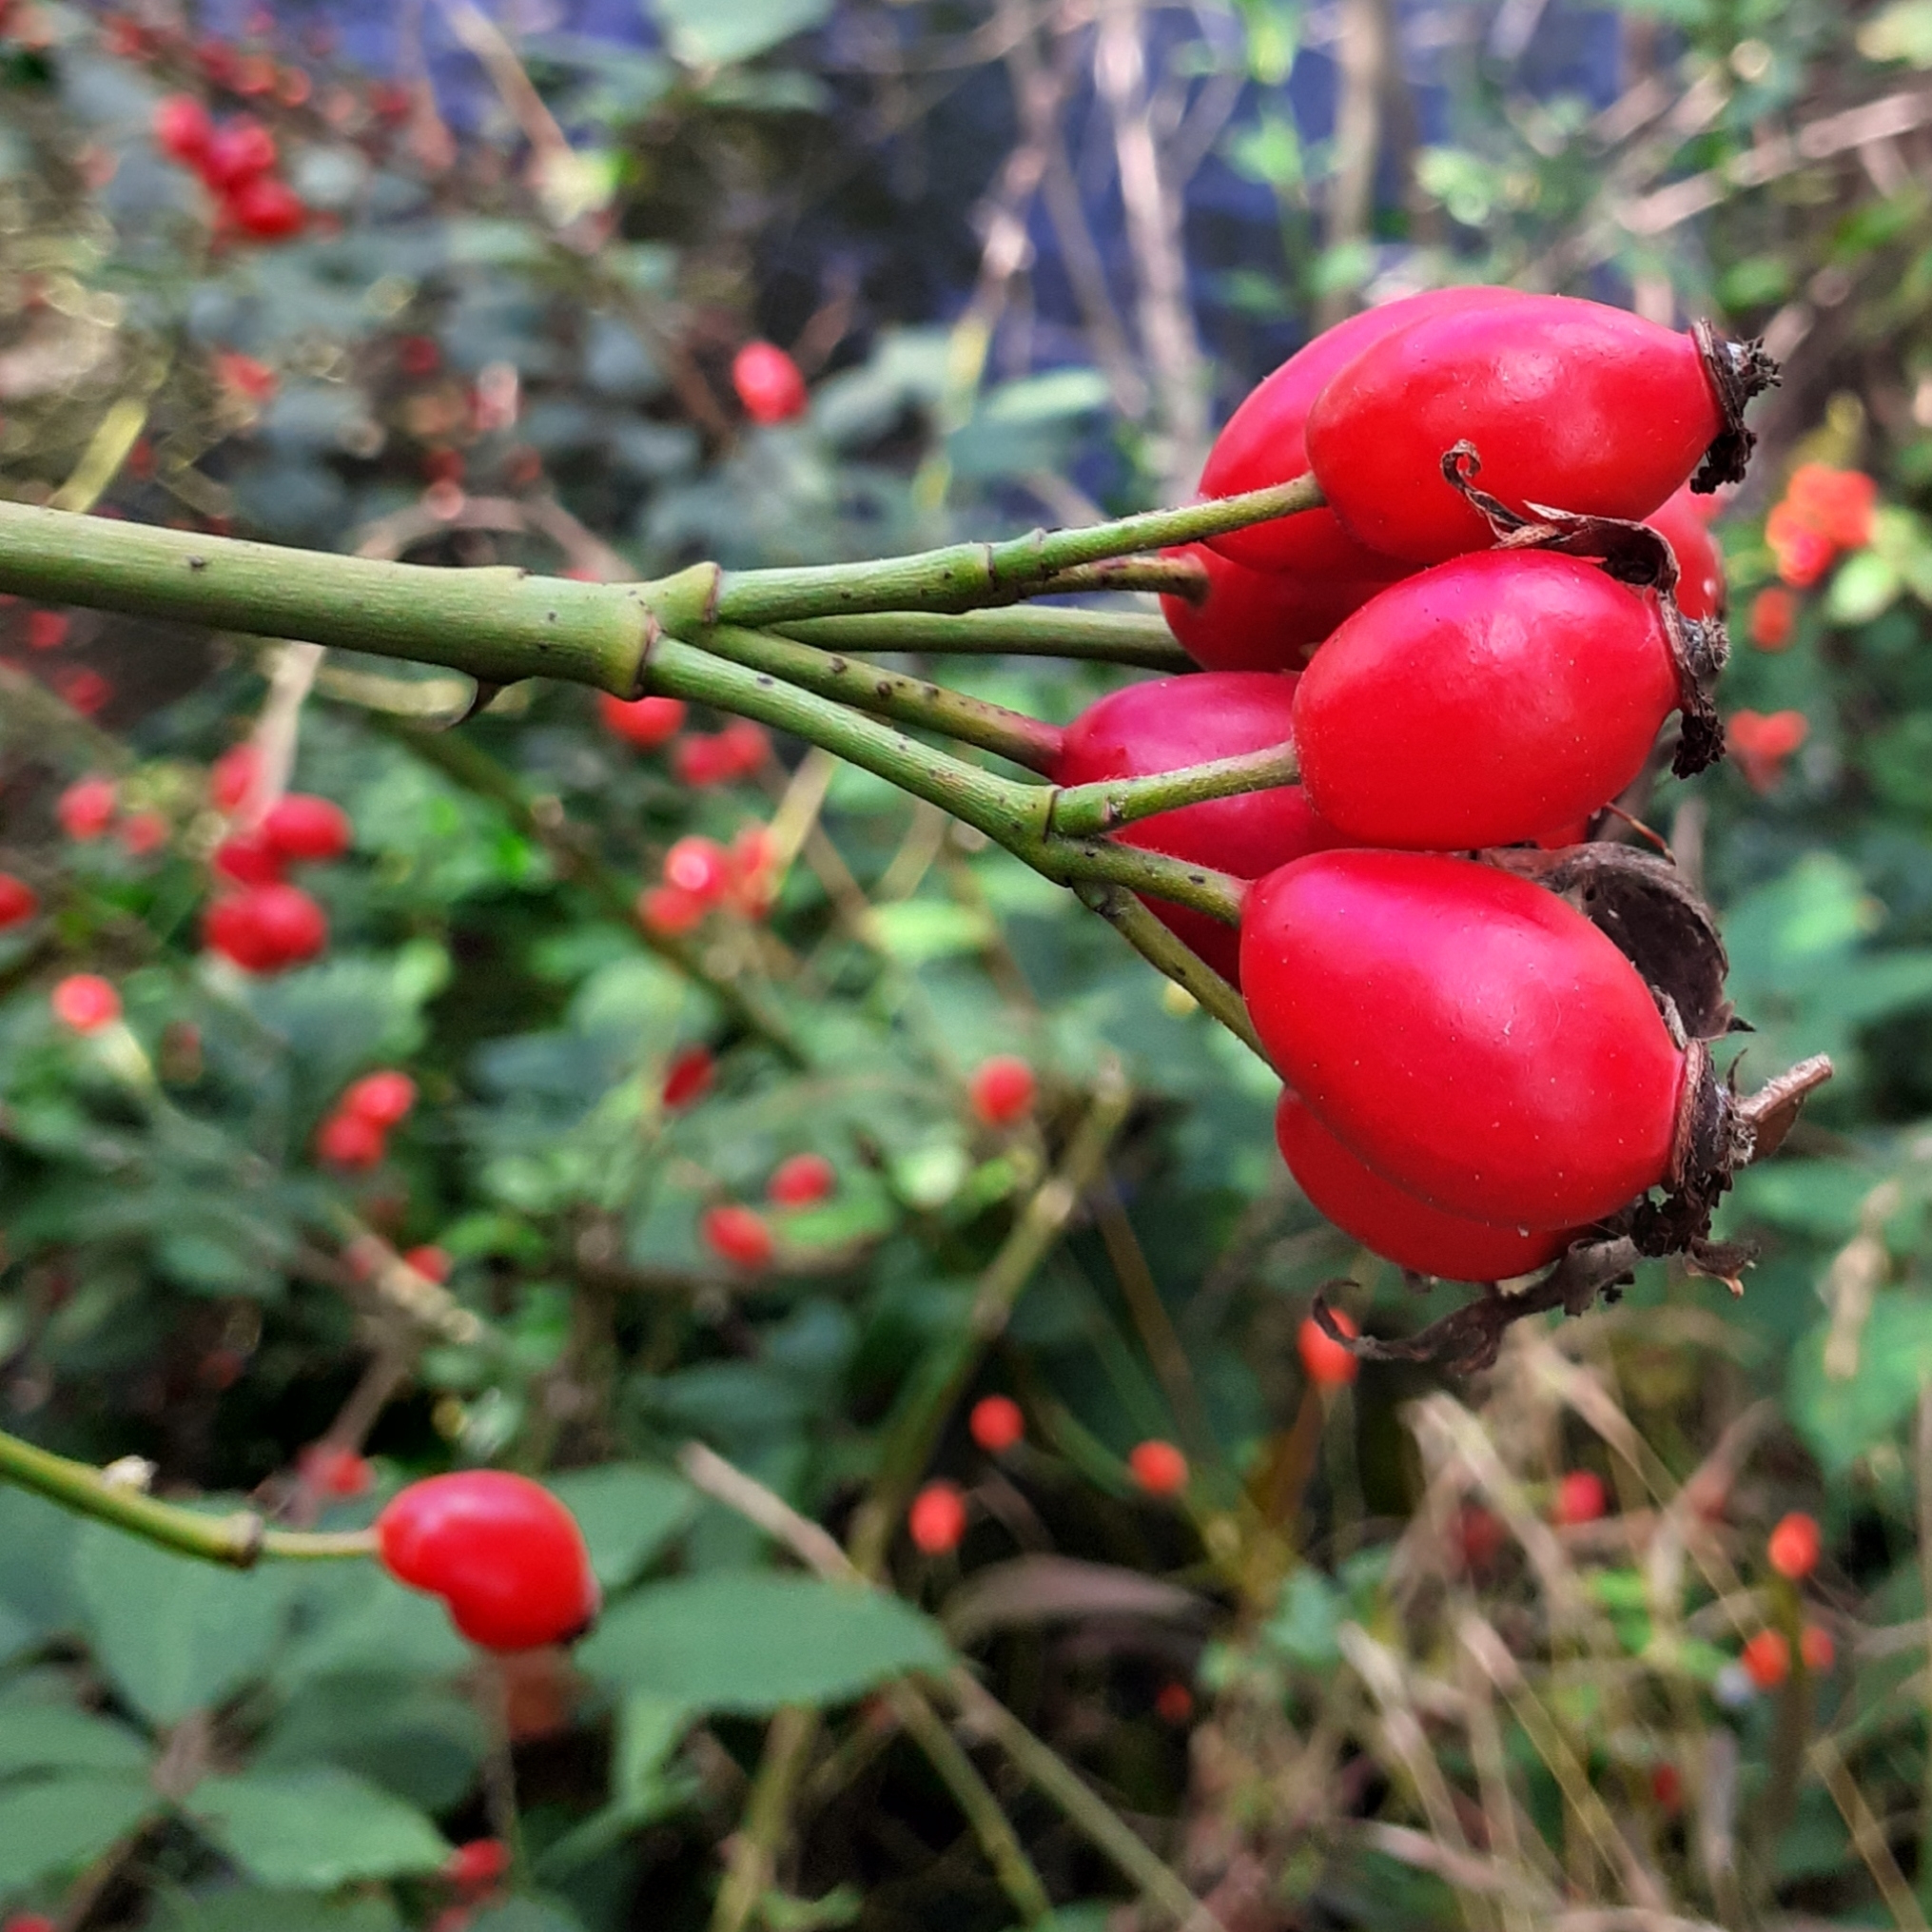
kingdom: Plantae
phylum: Tracheophyta
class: Magnoliopsida
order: Rosales
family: Rosaceae
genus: Rosa
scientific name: Rosa canina
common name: Dog rose
